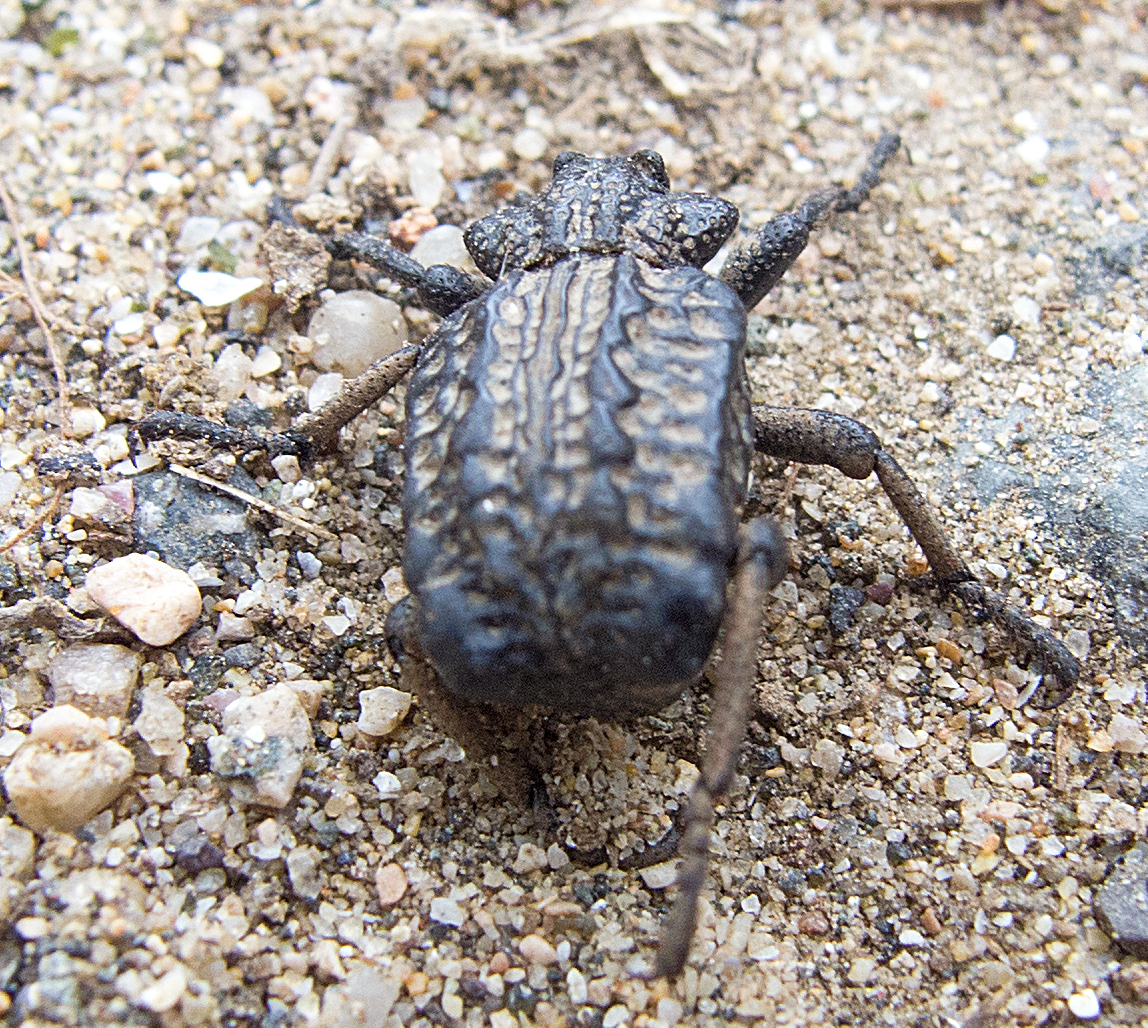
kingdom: Animalia
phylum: Arthropoda
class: Insecta
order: Coleoptera
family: Brachyceridae
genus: Brachycerus
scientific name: Brachycerus undatus
